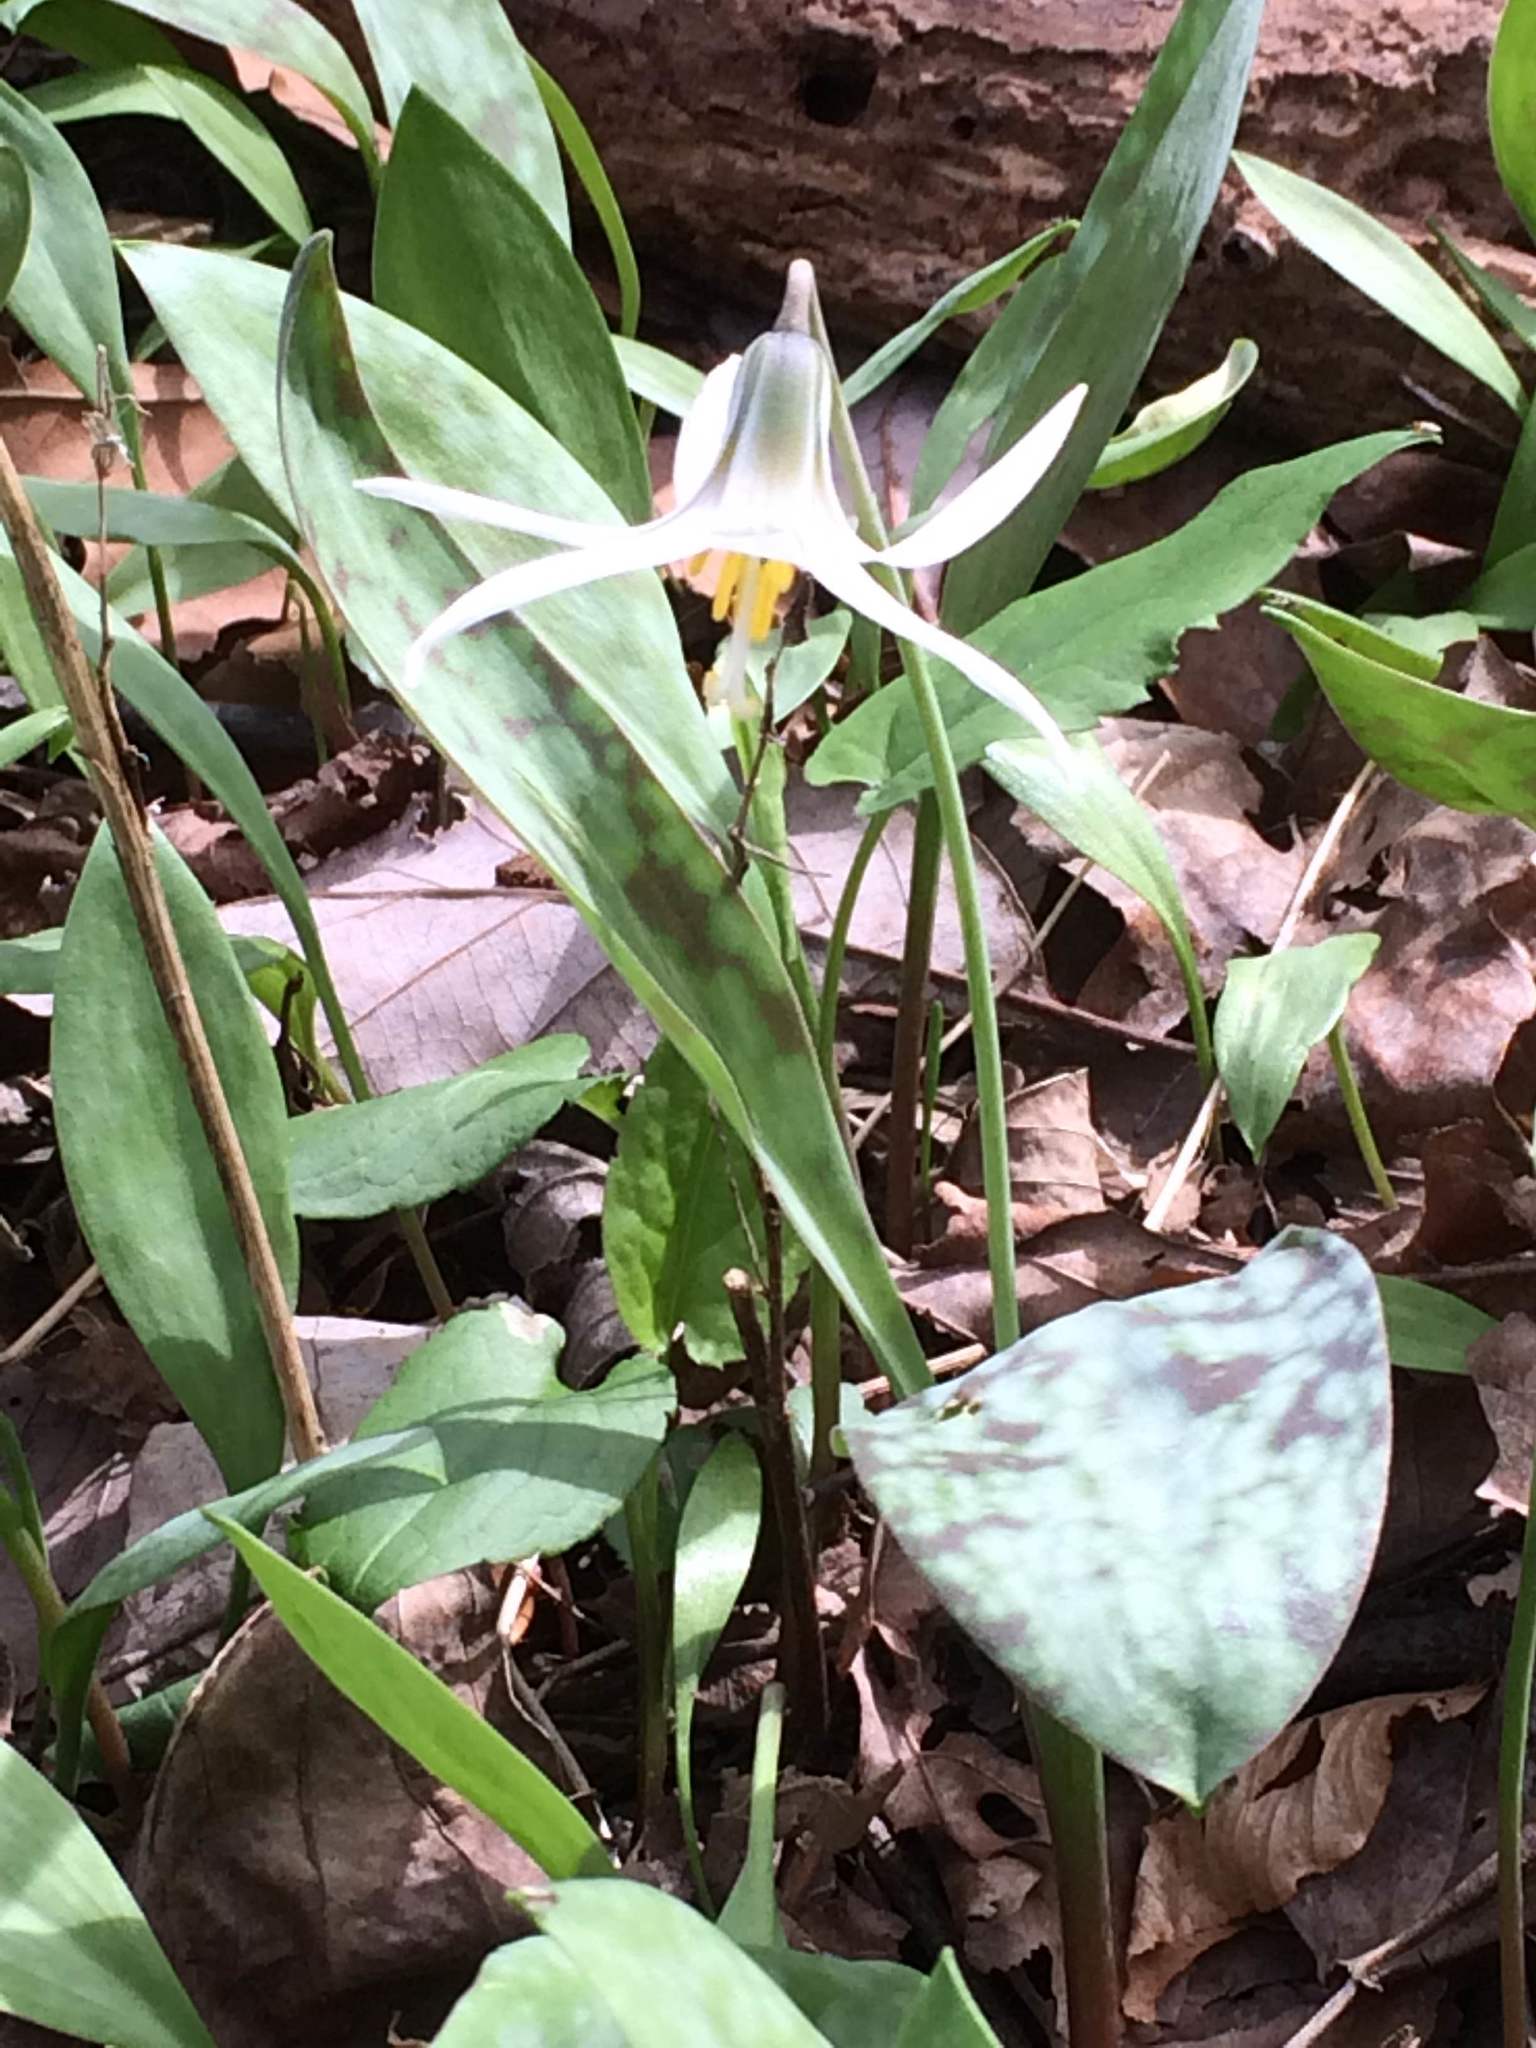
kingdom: Plantae
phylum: Tracheophyta
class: Liliopsida
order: Liliales
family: Liliaceae
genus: Erythronium
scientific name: Erythronium albidum
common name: White trout-lily
